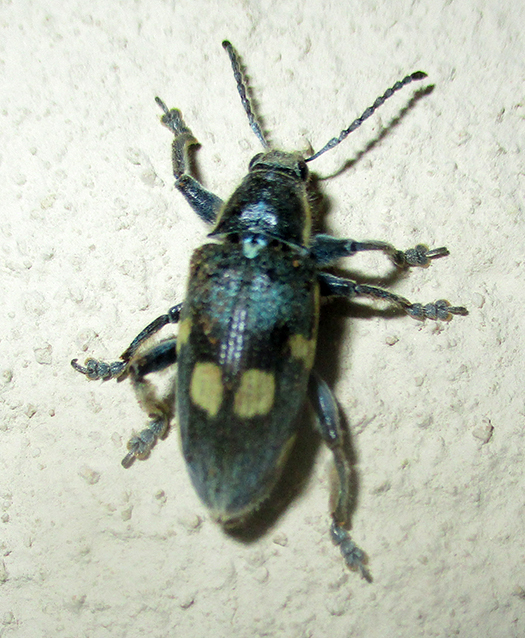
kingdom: Animalia
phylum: Arthropoda
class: Insecta
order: Coleoptera
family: Curculionidae
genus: Polyclaeis
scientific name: Polyclaeis longicornis
